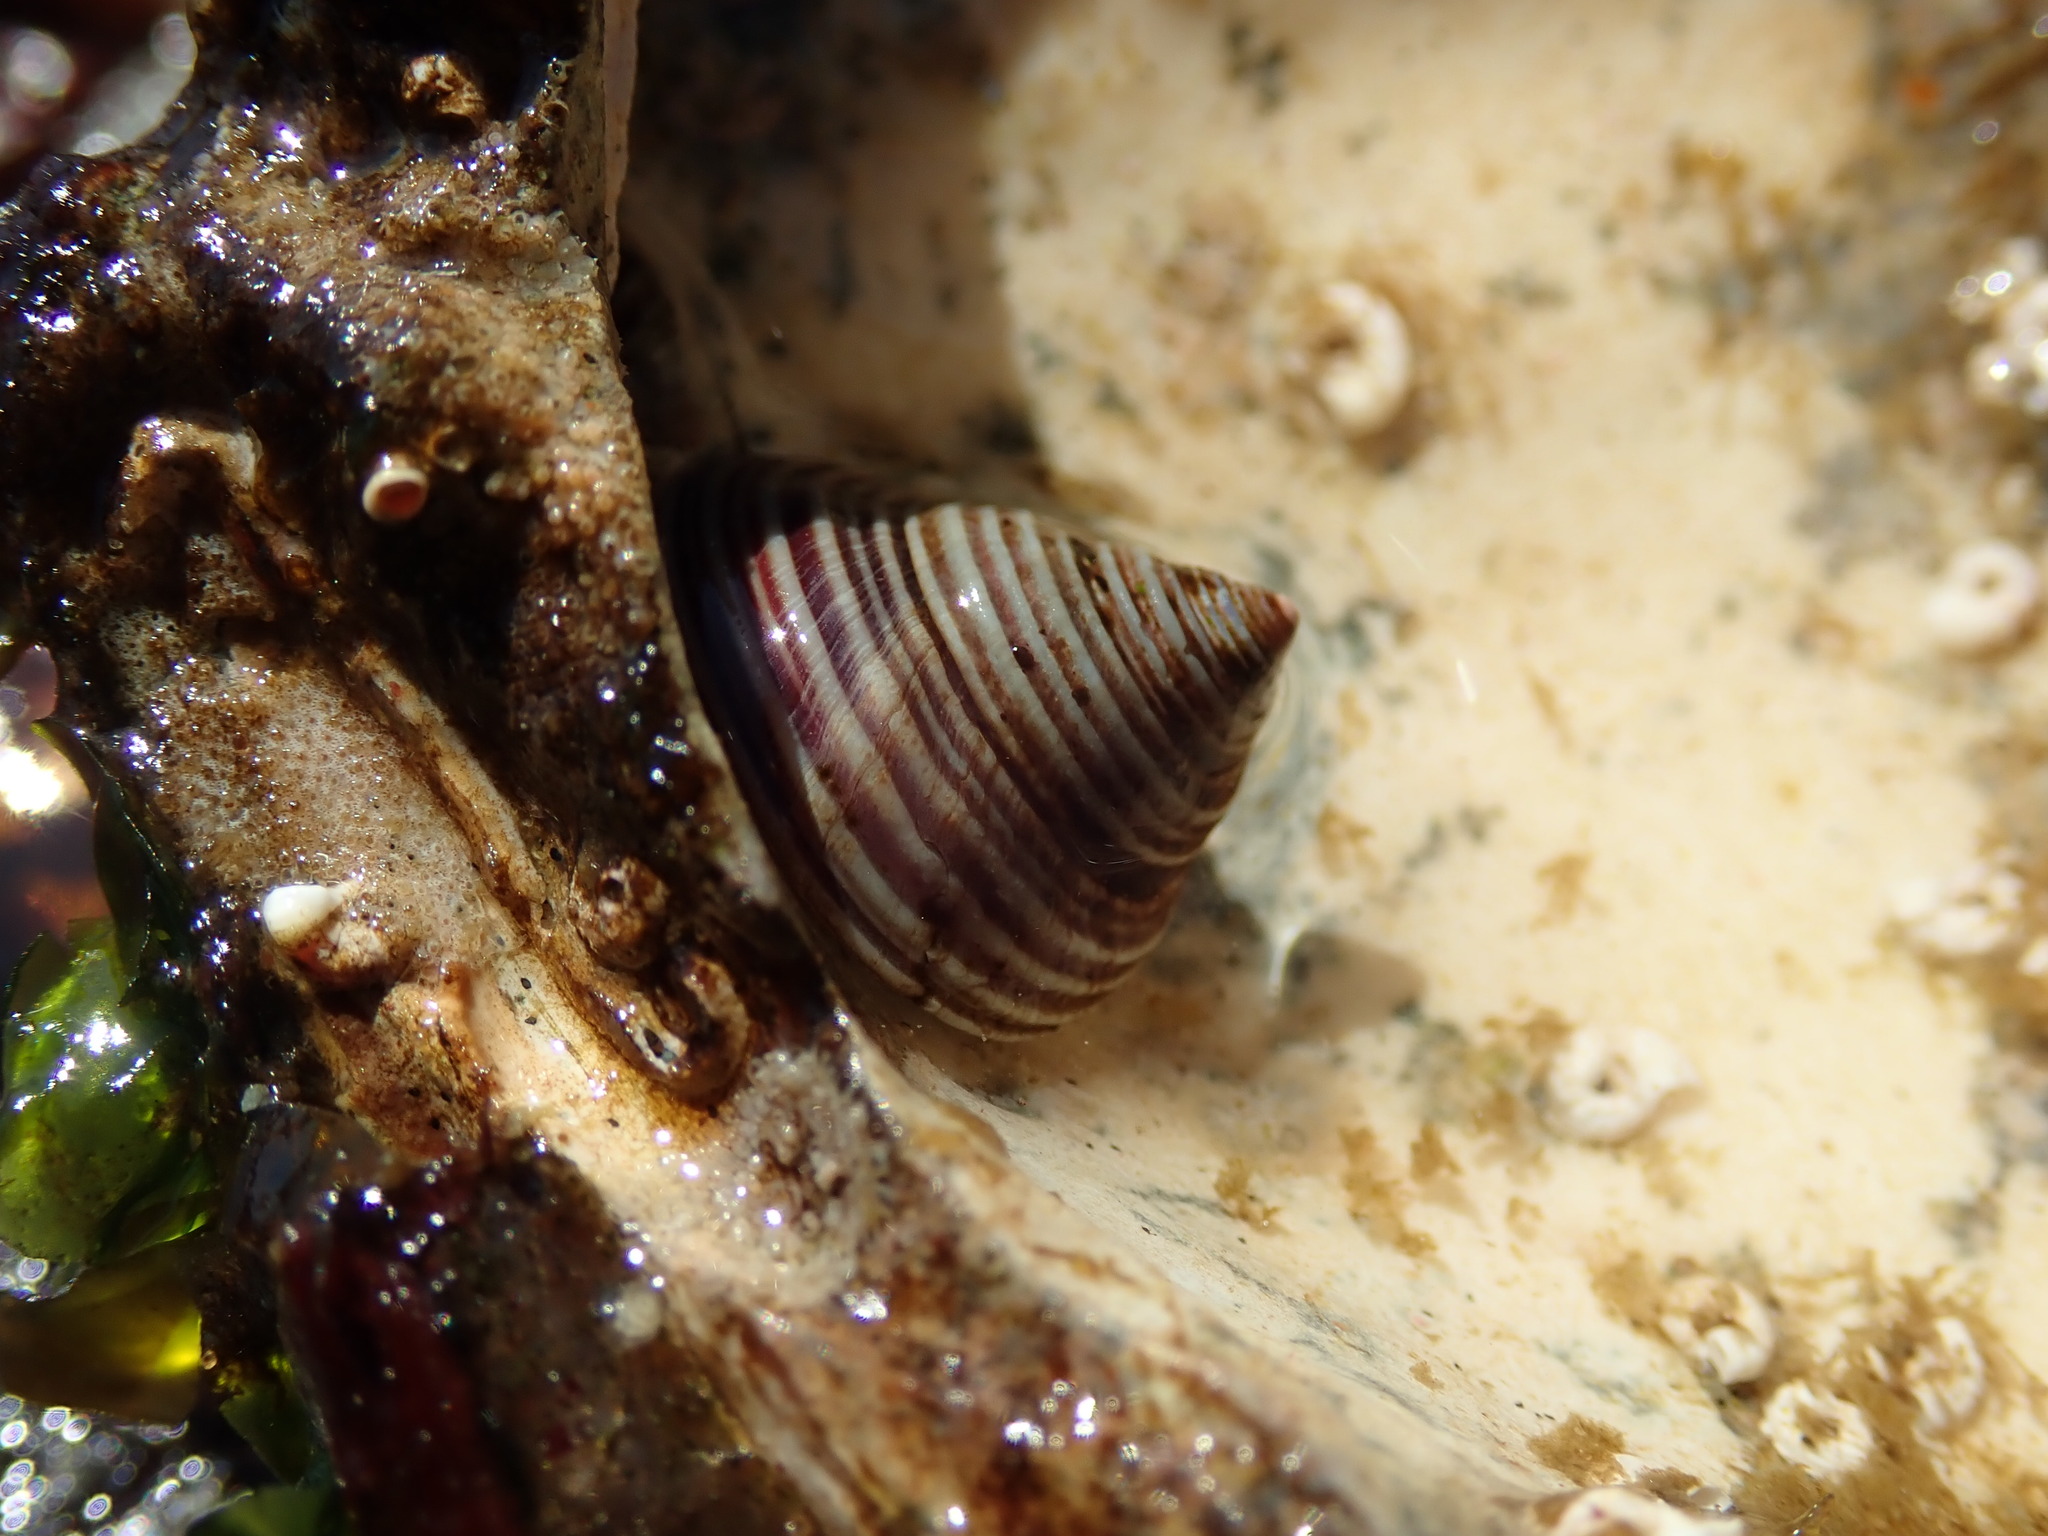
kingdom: Animalia
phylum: Mollusca
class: Gastropoda
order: Trochida
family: Calliostomatidae
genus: Calliostoma
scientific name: Calliostoma canaliculatum
